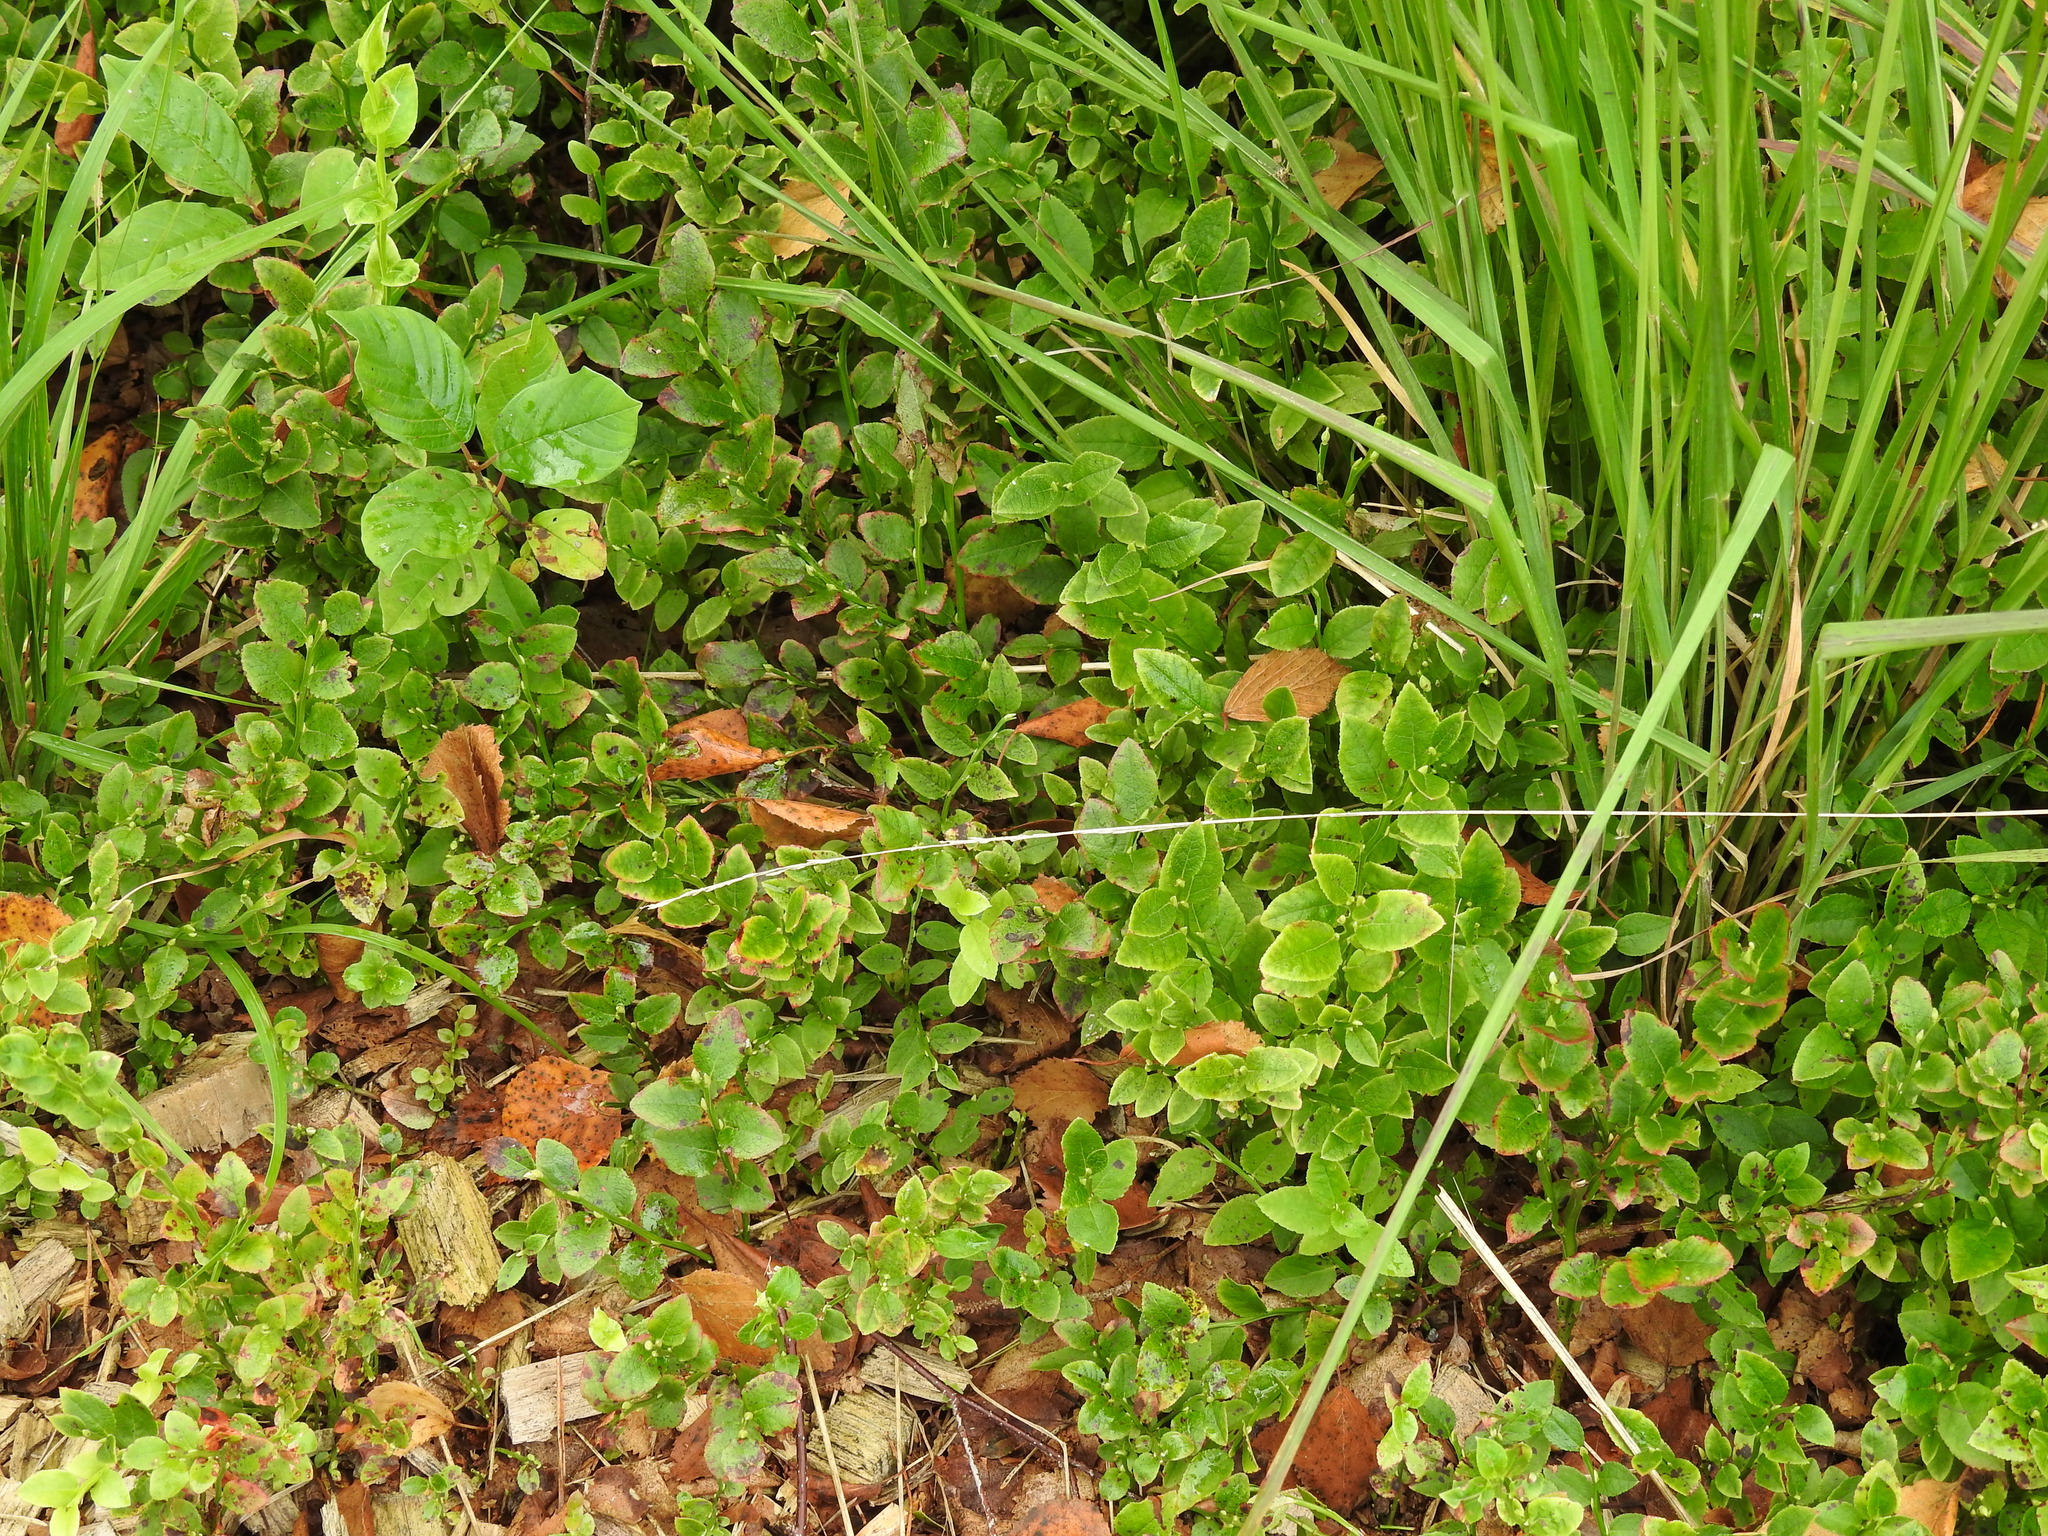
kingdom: Plantae
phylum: Tracheophyta
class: Magnoliopsida
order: Ericales
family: Ericaceae
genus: Vaccinium
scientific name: Vaccinium myrtillus
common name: Bilberry
